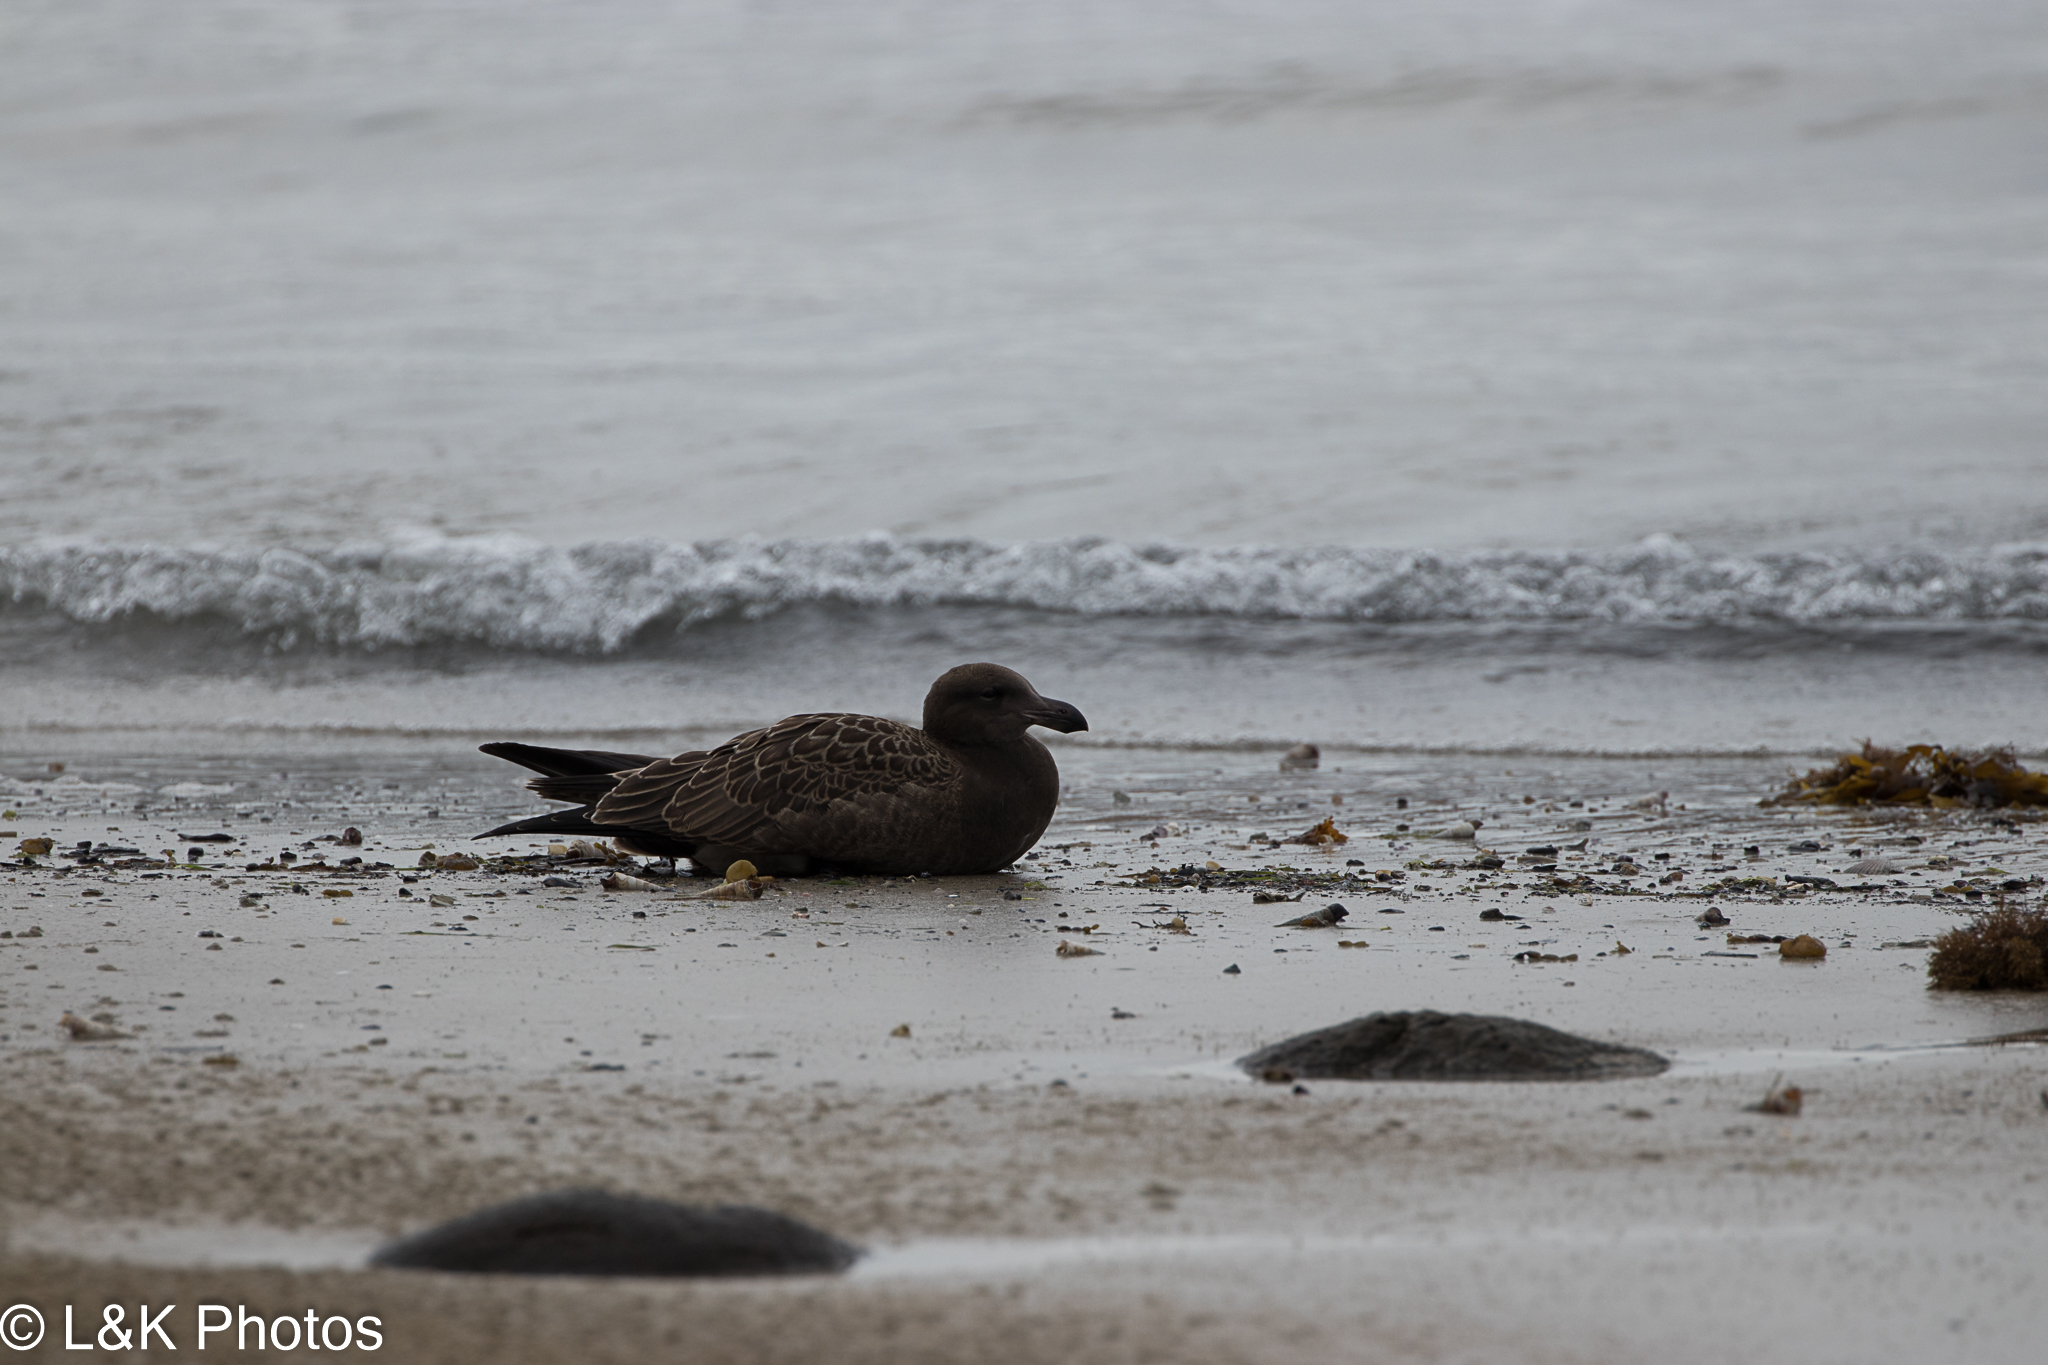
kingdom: Animalia
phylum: Chordata
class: Aves
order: Charadriiformes
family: Laridae
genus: Larus
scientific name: Larus pacificus
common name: Pacific gull
